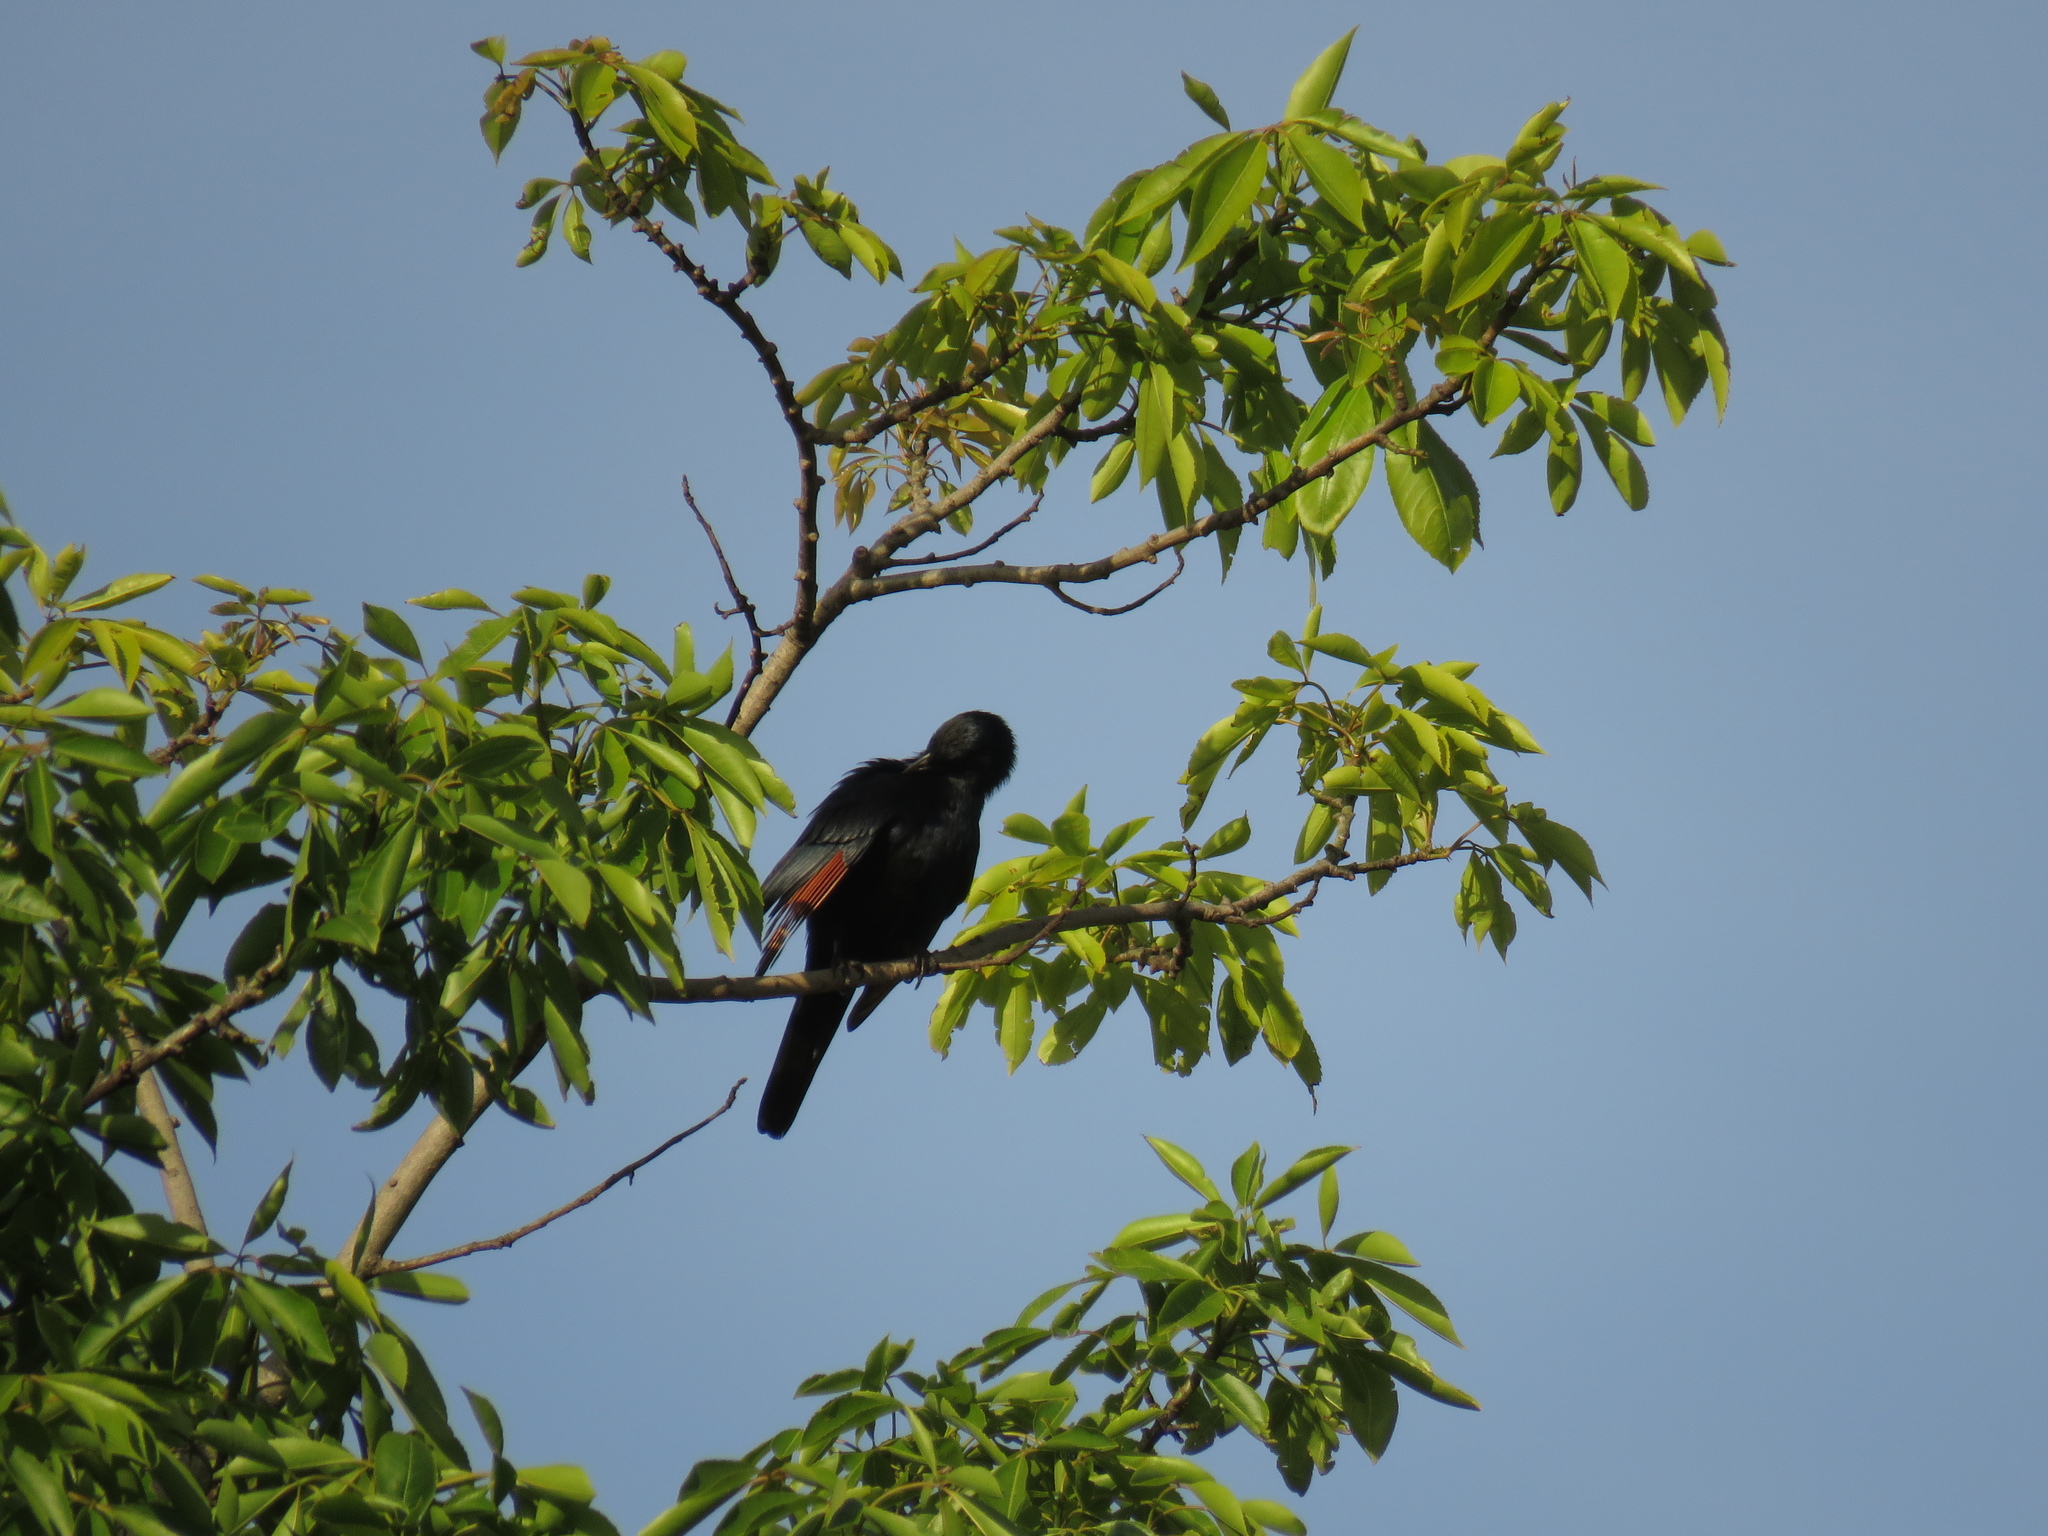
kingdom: Animalia
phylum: Chordata
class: Aves
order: Passeriformes
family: Sturnidae
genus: Onychognathus
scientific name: Onychognathus morio
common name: Red-winged starling
